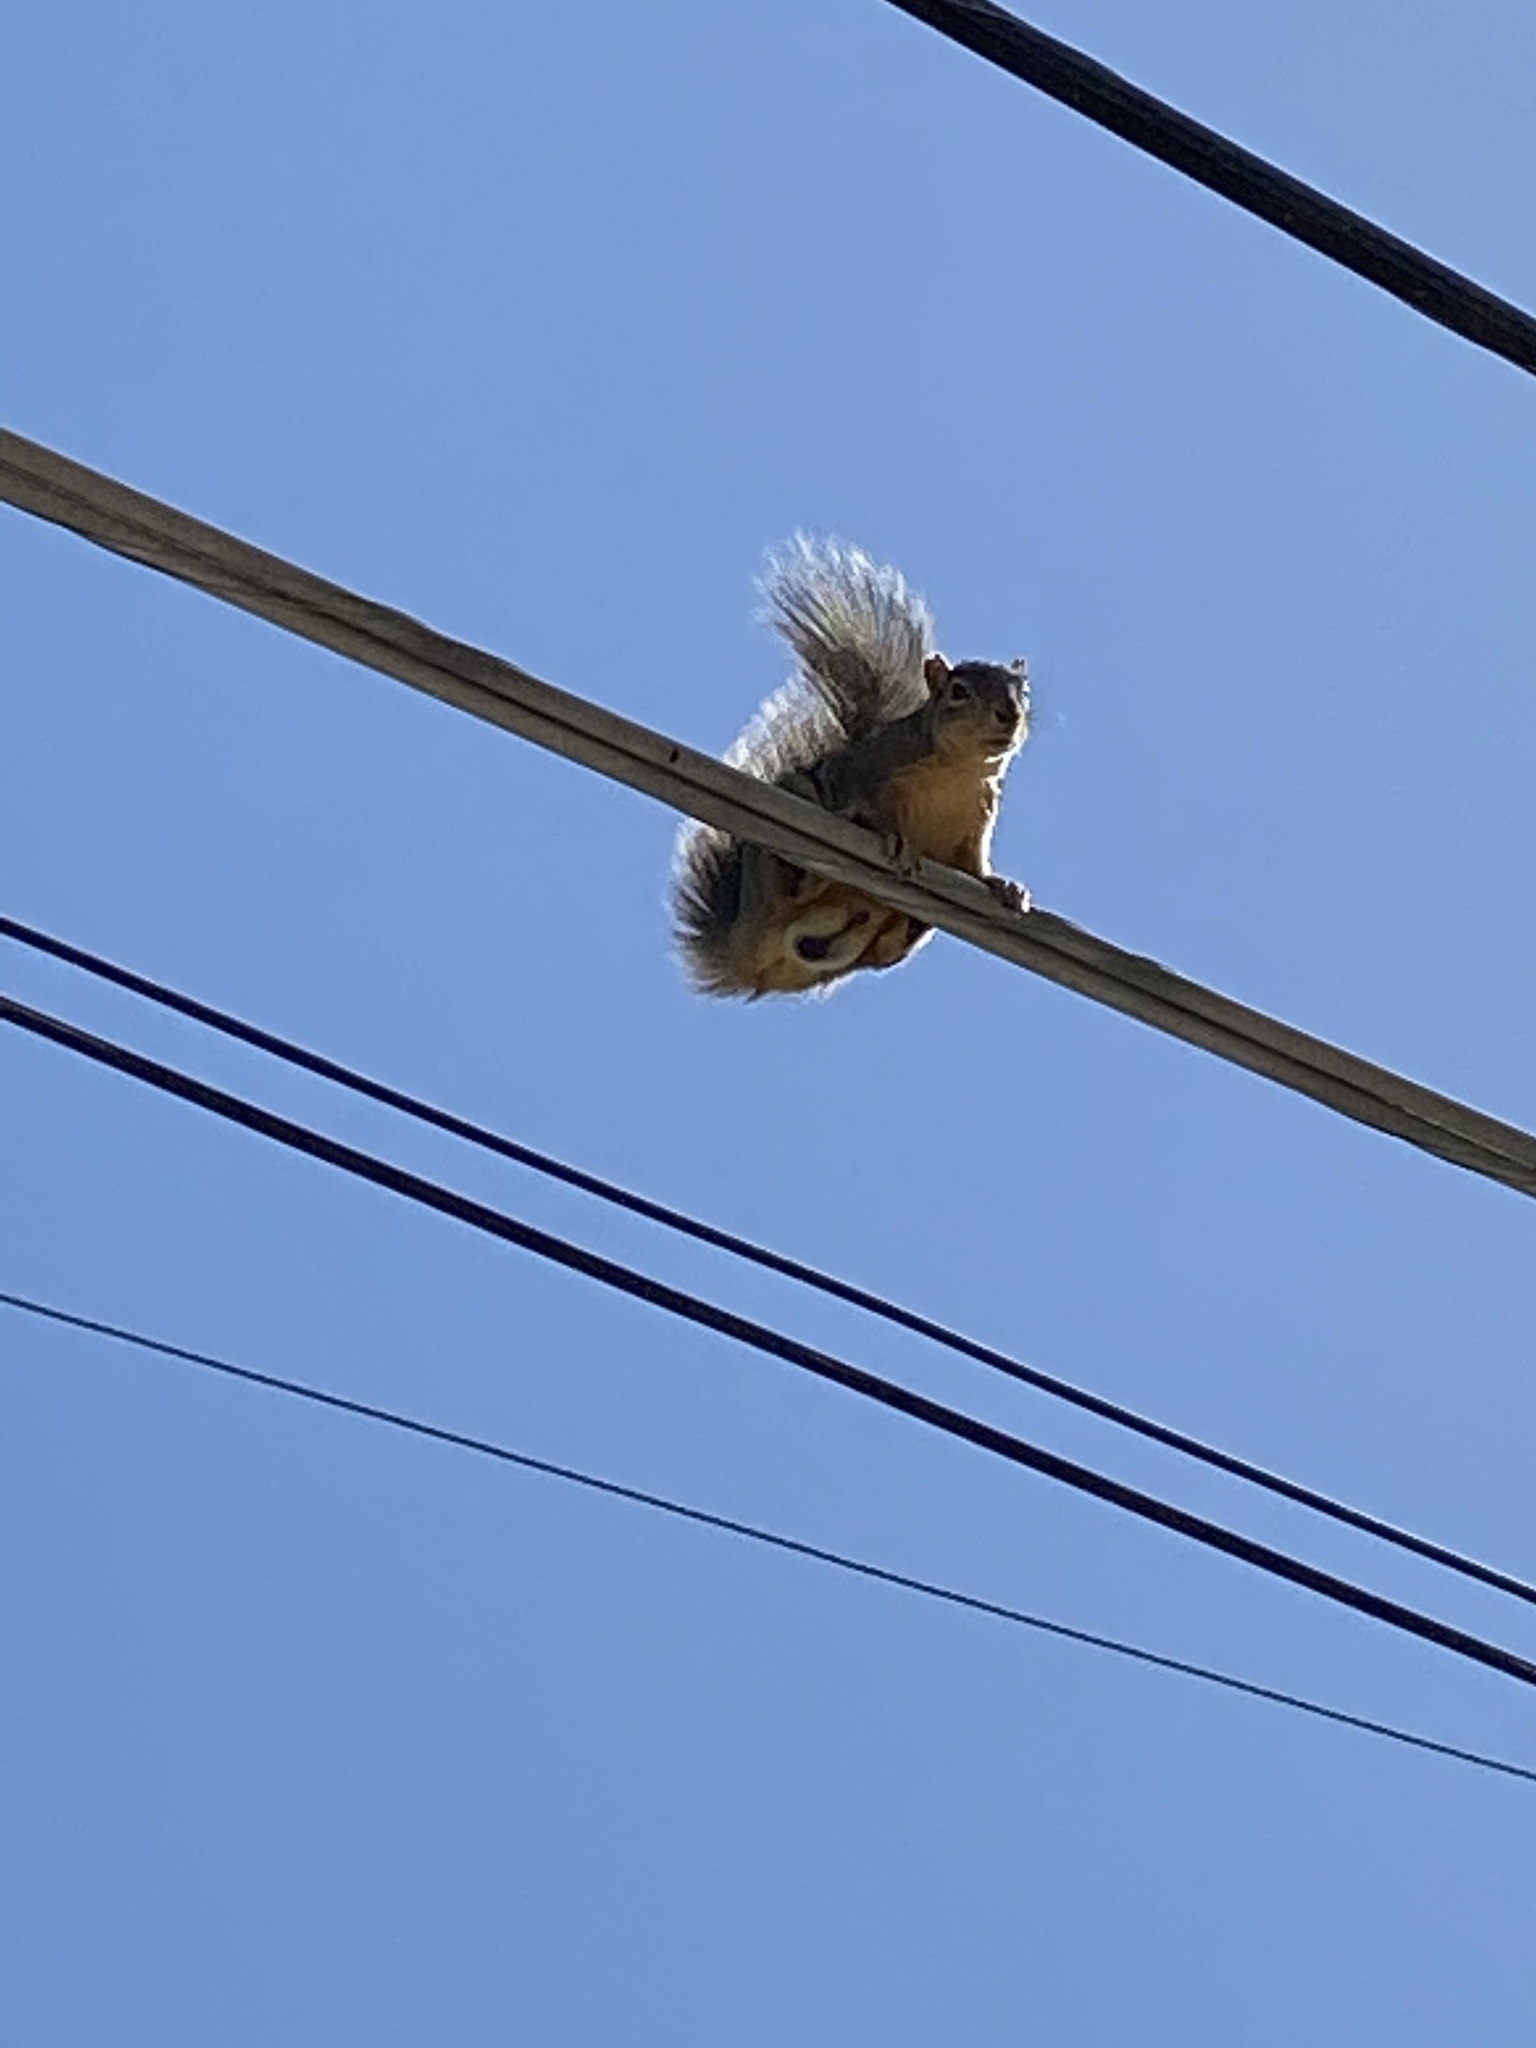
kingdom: Animalia
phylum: Chordata
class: Mammalia
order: Rodentia
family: Sciuridae
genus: Sciurus
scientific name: Sciurus niger
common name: Fox squirrel
